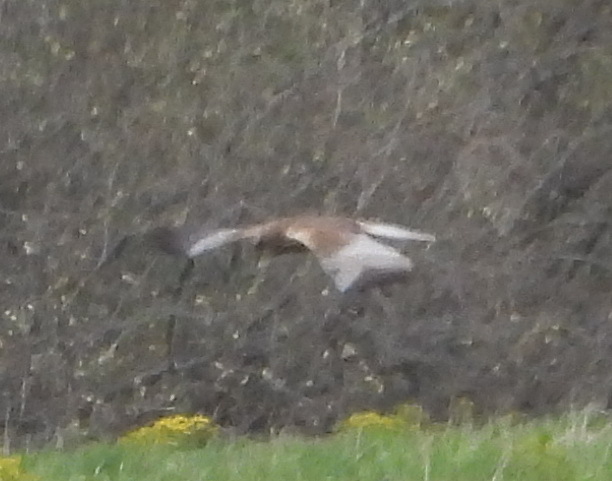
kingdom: Animalia
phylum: Chordata
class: Aves
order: Accipitriformes
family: Accipitridae
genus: Circus
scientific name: Circus aeruginosus
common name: Western marsh harrier
